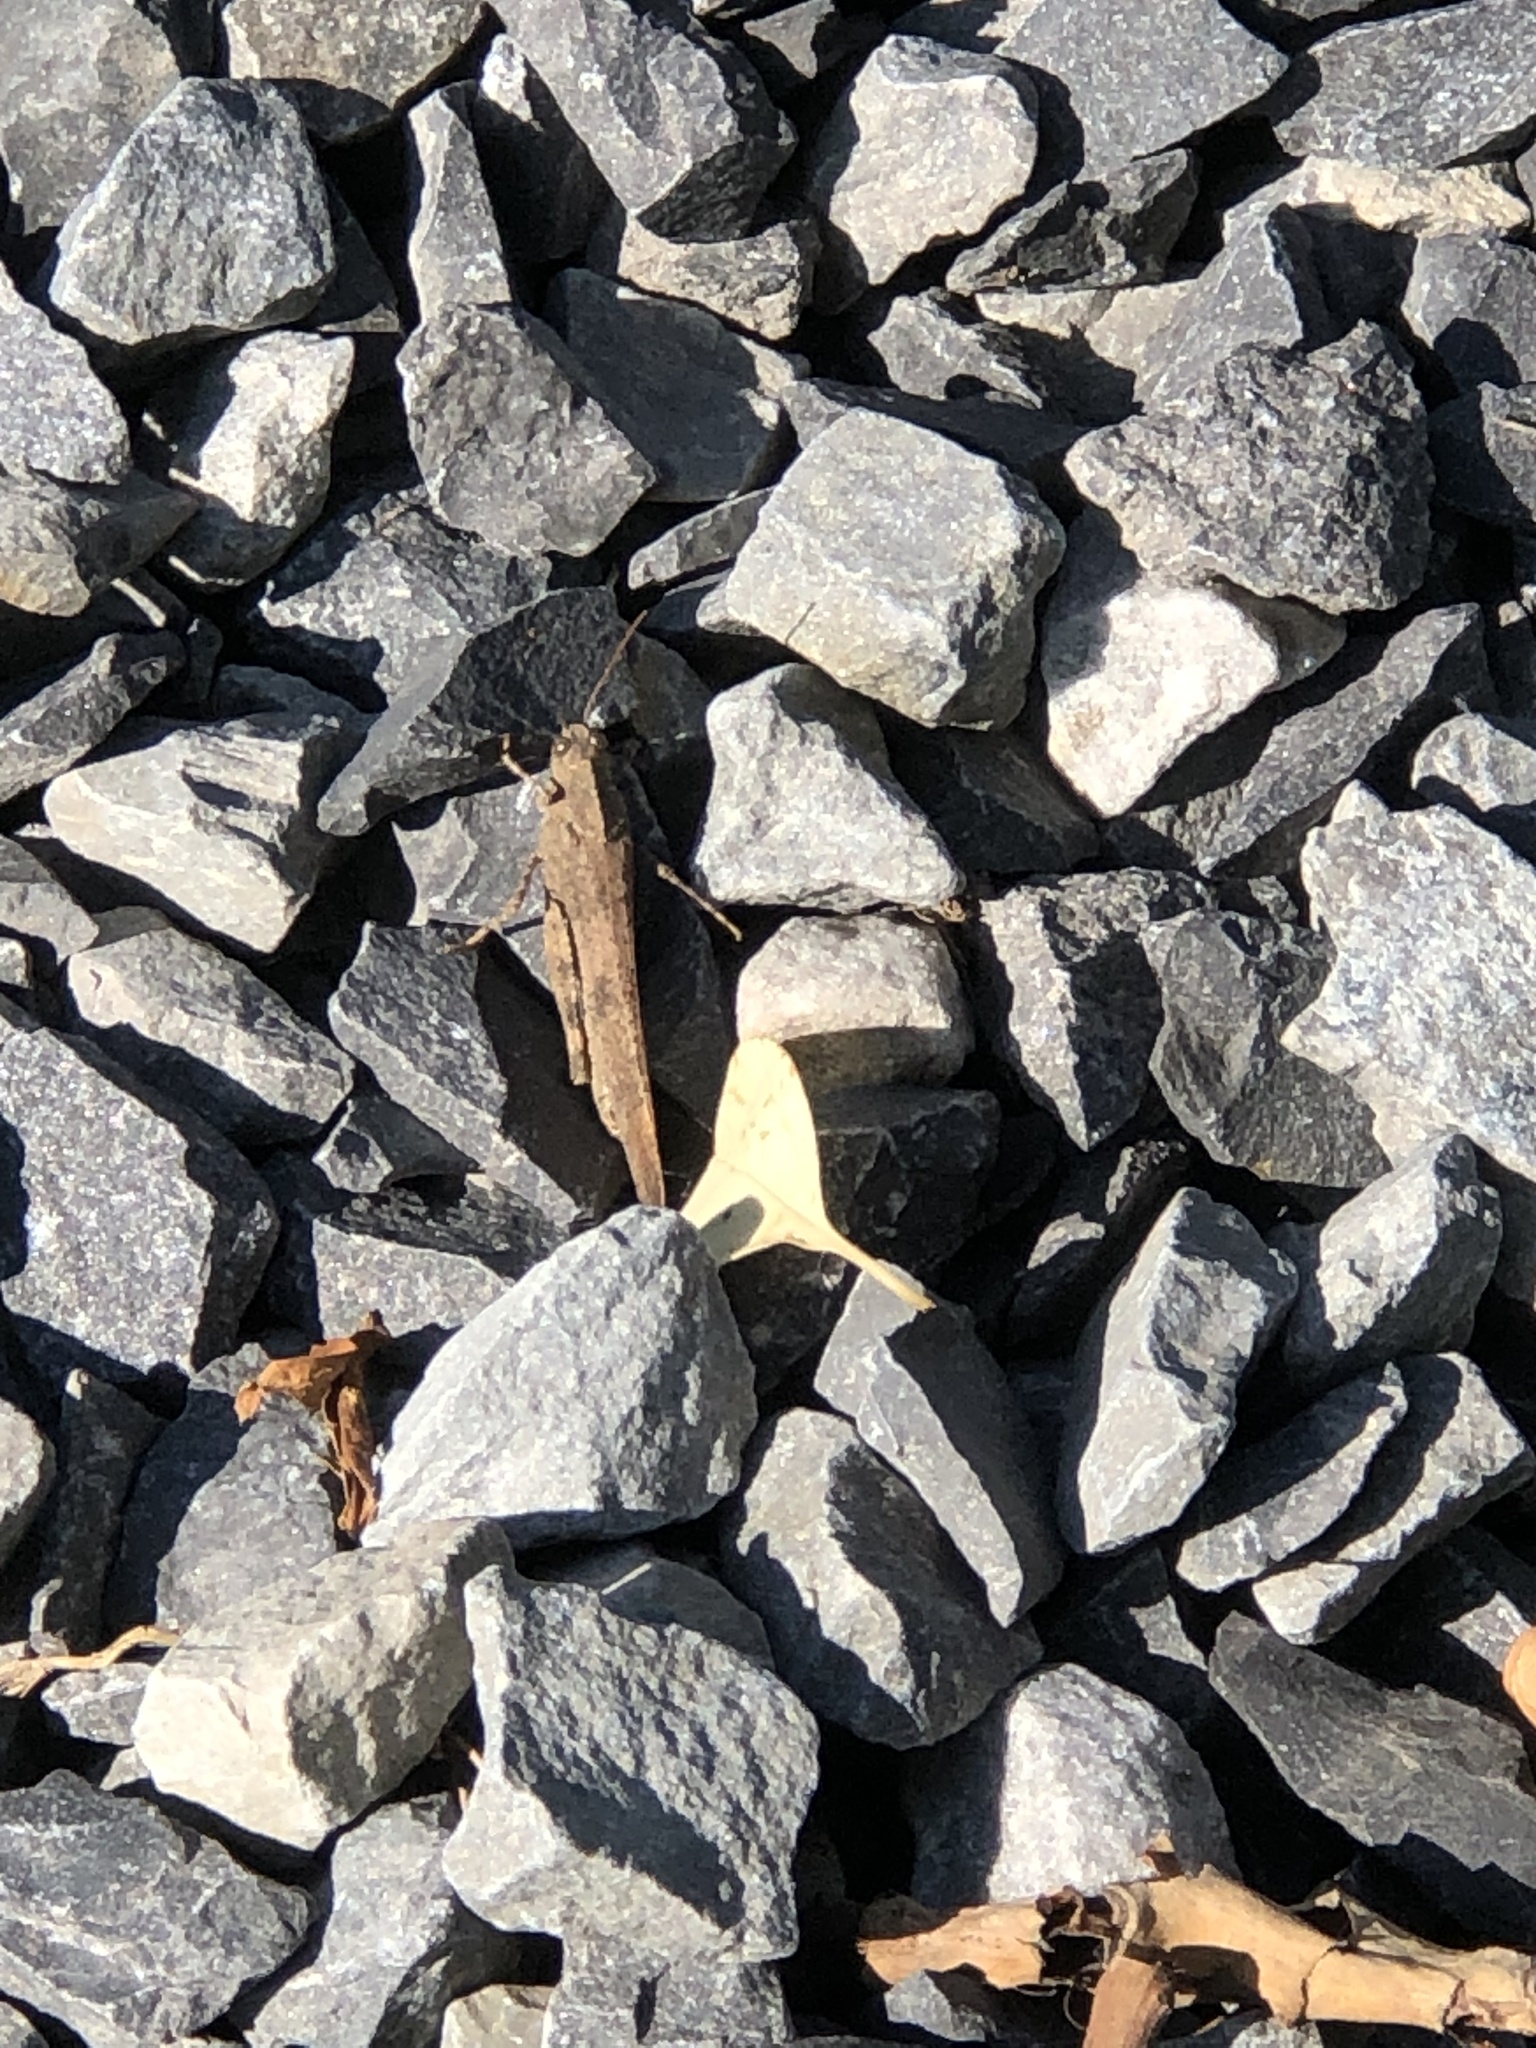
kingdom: Animalia
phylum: Arthropoda
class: Insecta
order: Orthoptera
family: Acrididae
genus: Dissosteira
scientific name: Dissosteira carolina
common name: Carolina grasshopper
